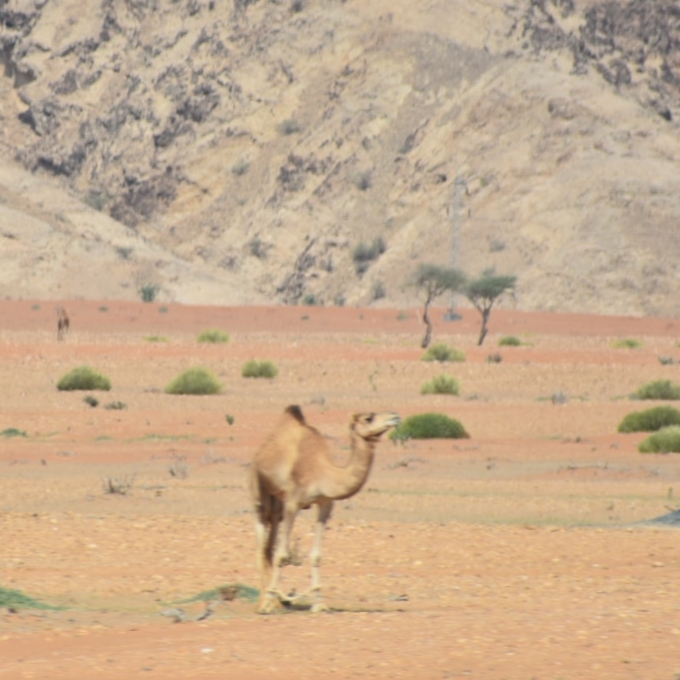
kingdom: Animalia
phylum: Chordata
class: Mammalia
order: Artiodactyla
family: Camelidae
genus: Camelus
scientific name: Camelus dromedarius
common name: One-humped camel
